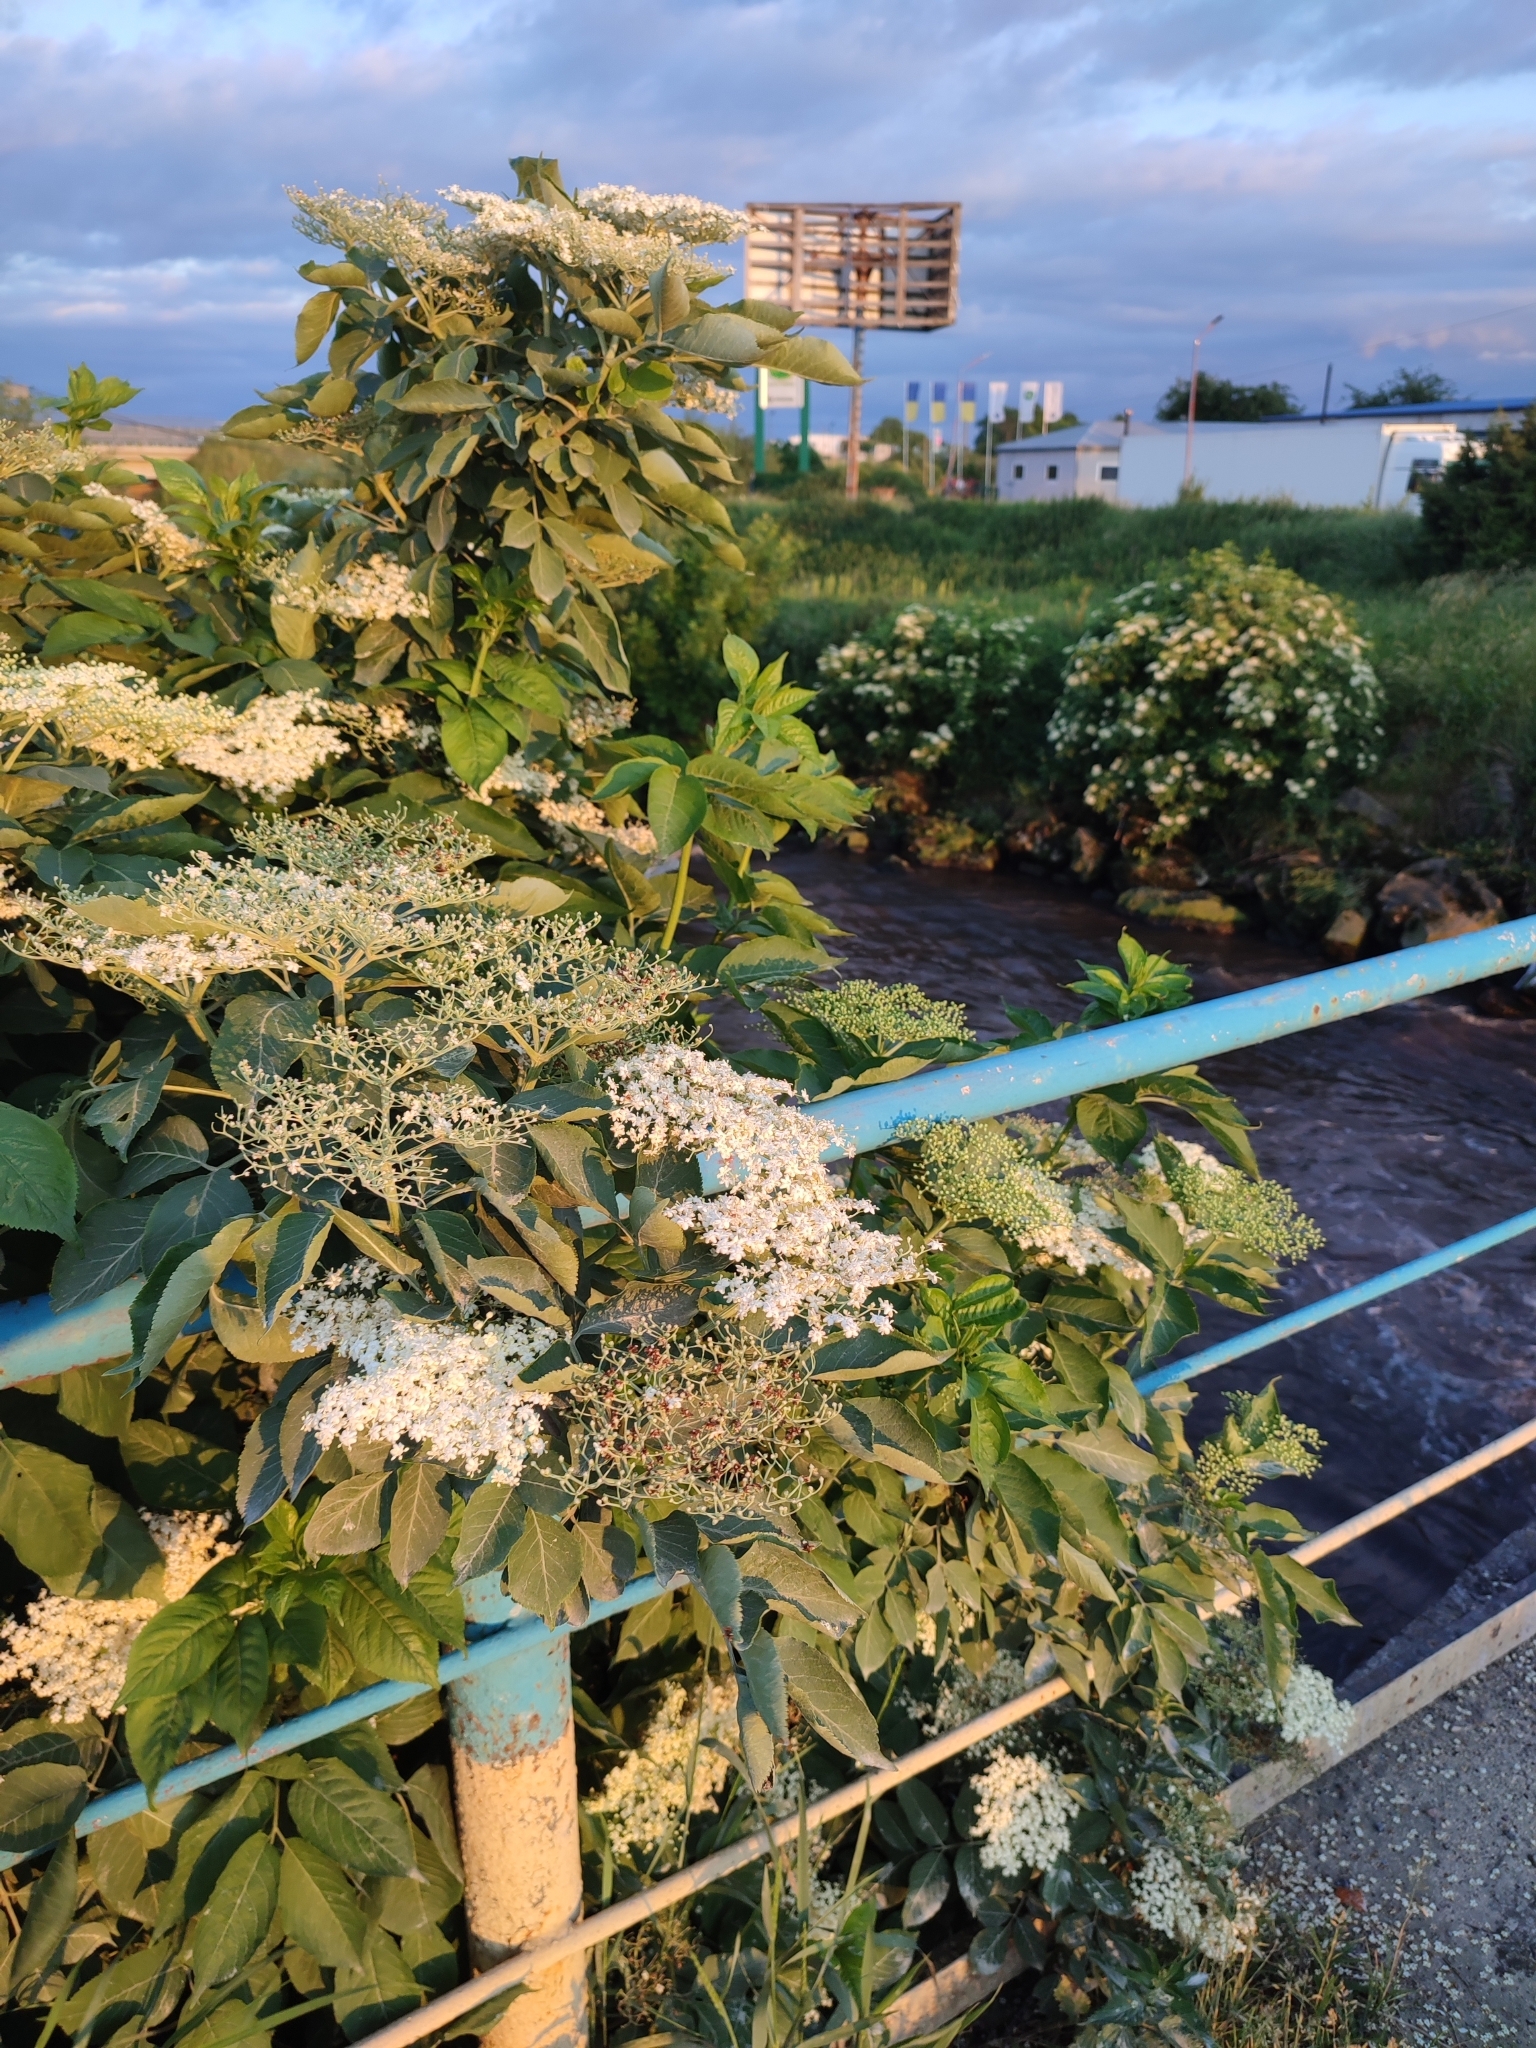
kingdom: Plantae
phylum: Tracheophyta
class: Magnoliopsida
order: Dipsacales
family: Viburnaceae
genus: Sambucus
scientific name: Sambucus nigra
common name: Elder
